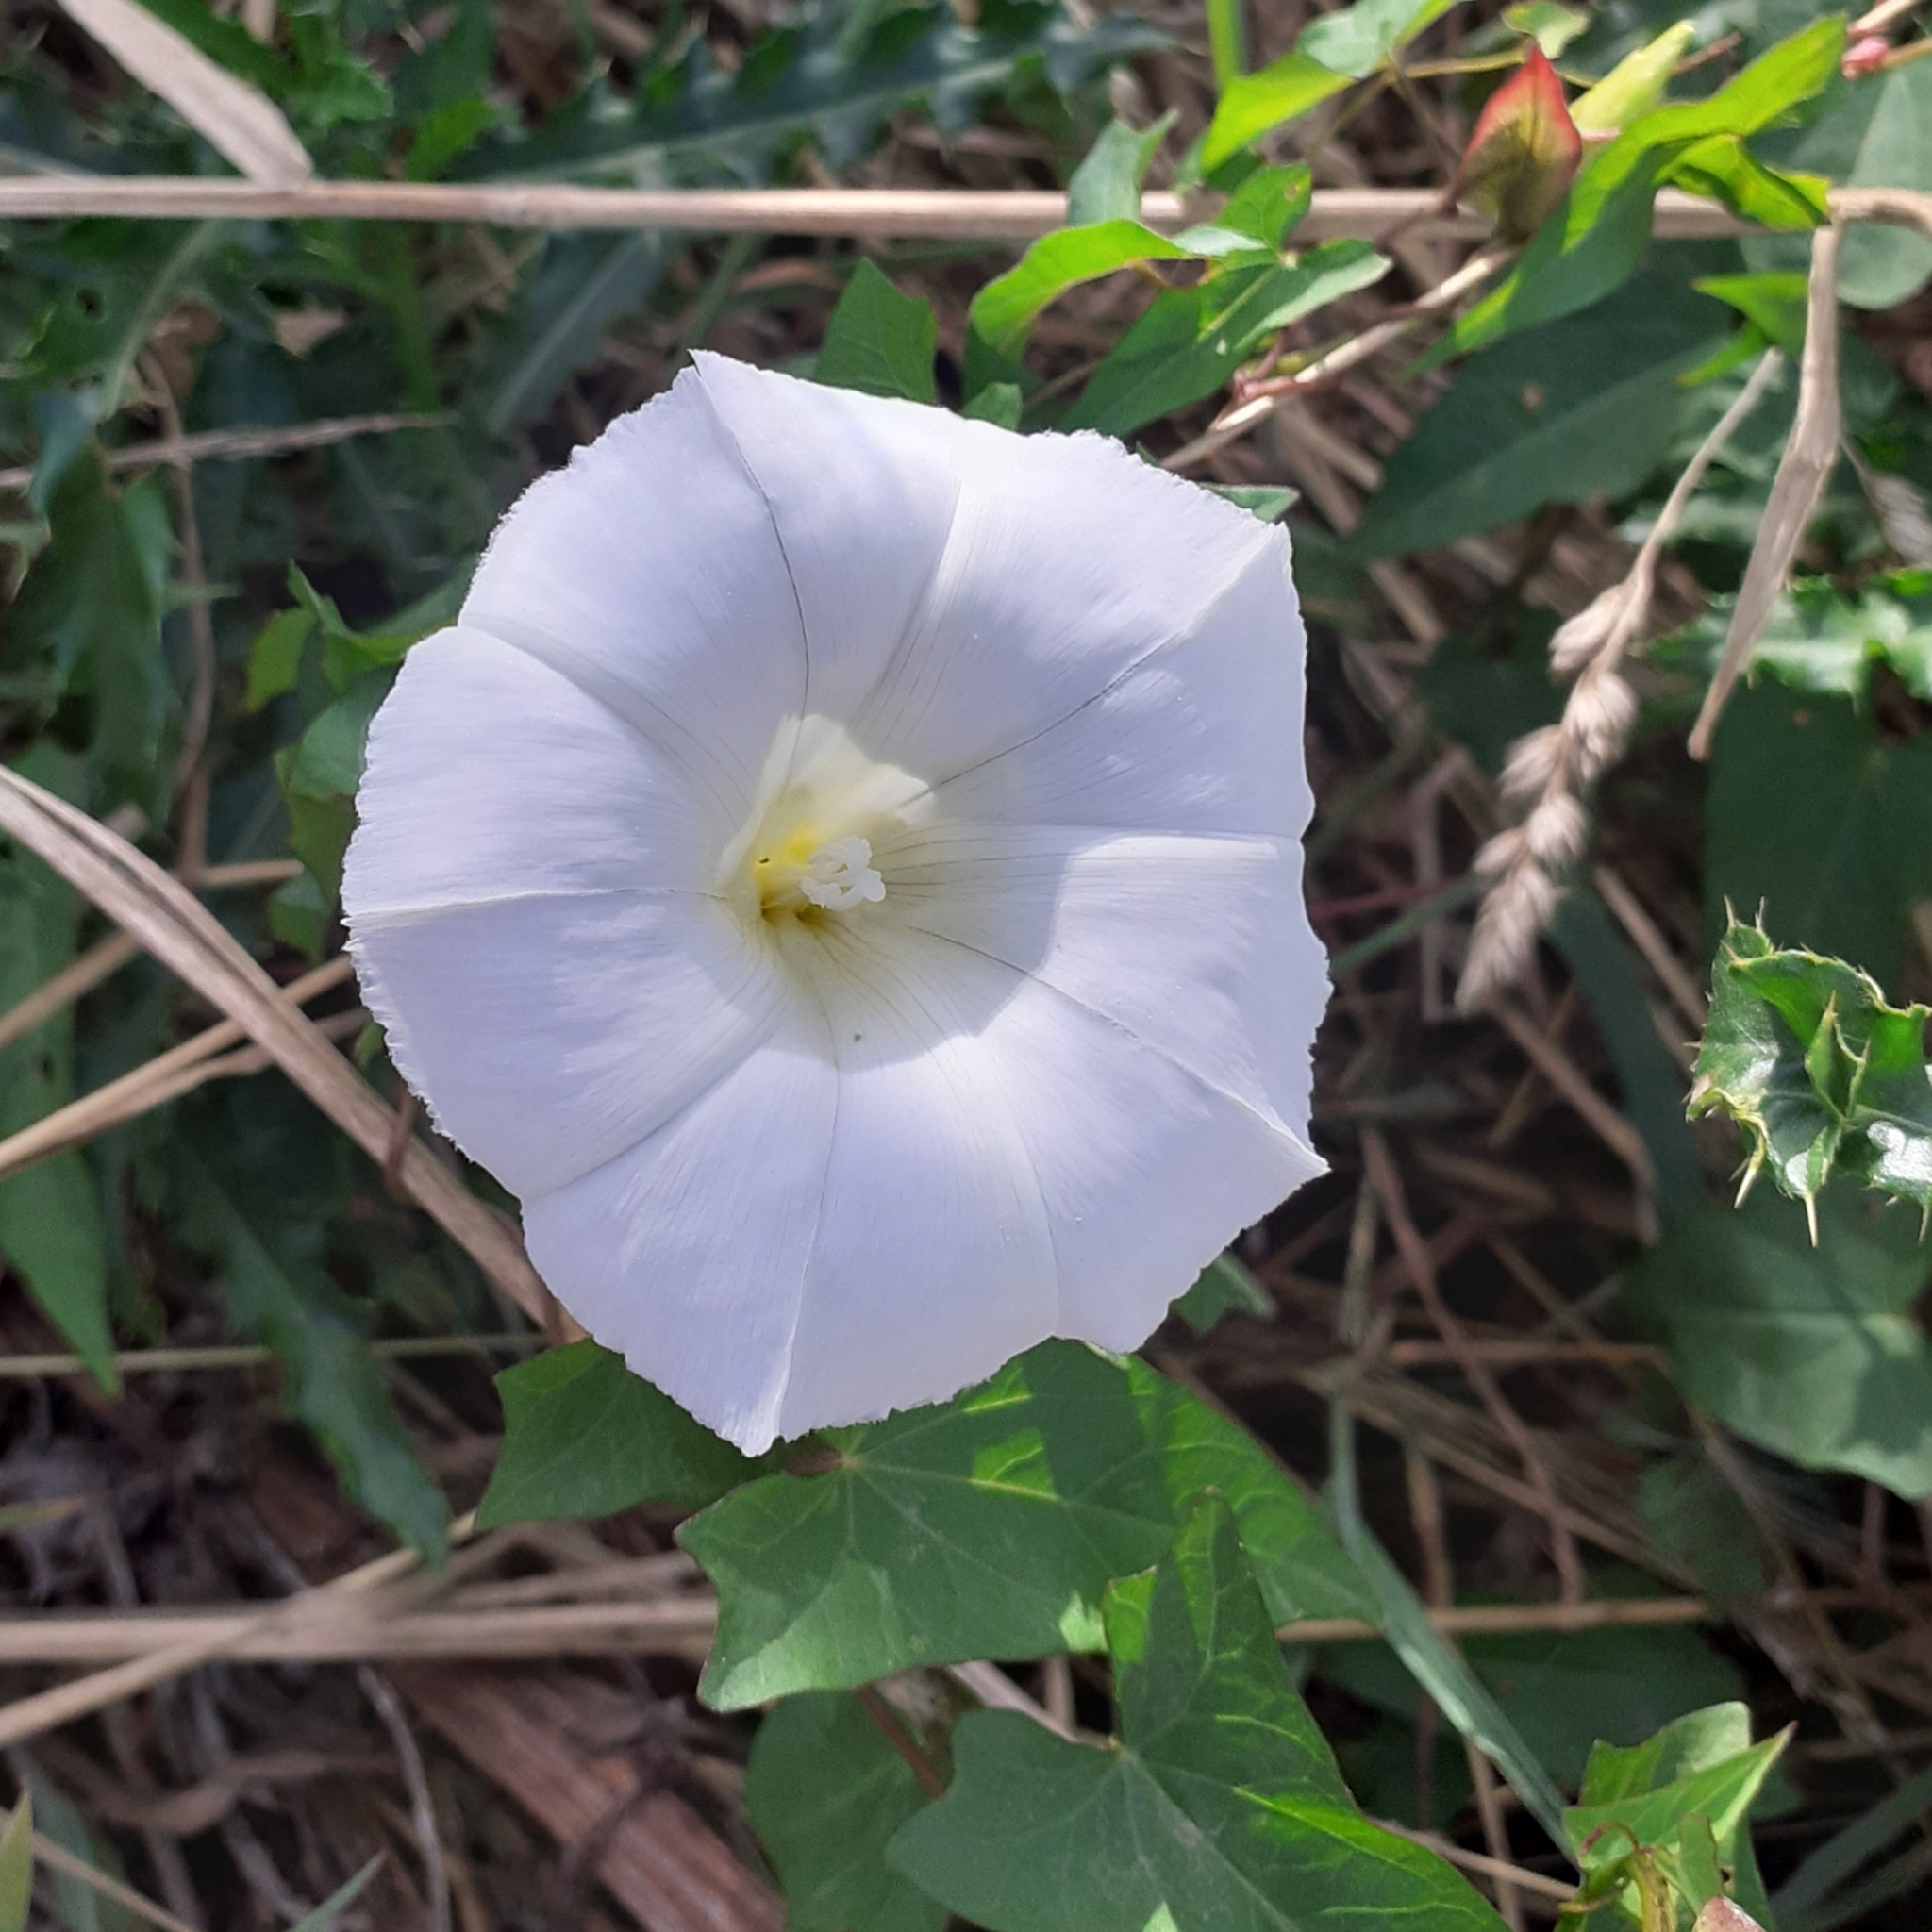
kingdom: Plantae
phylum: Tracheophyta
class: Magnoliopsida
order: Solanales
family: Convolvulaceae
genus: Calystegia
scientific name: Calystegia silvatica
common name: Large bindweed
